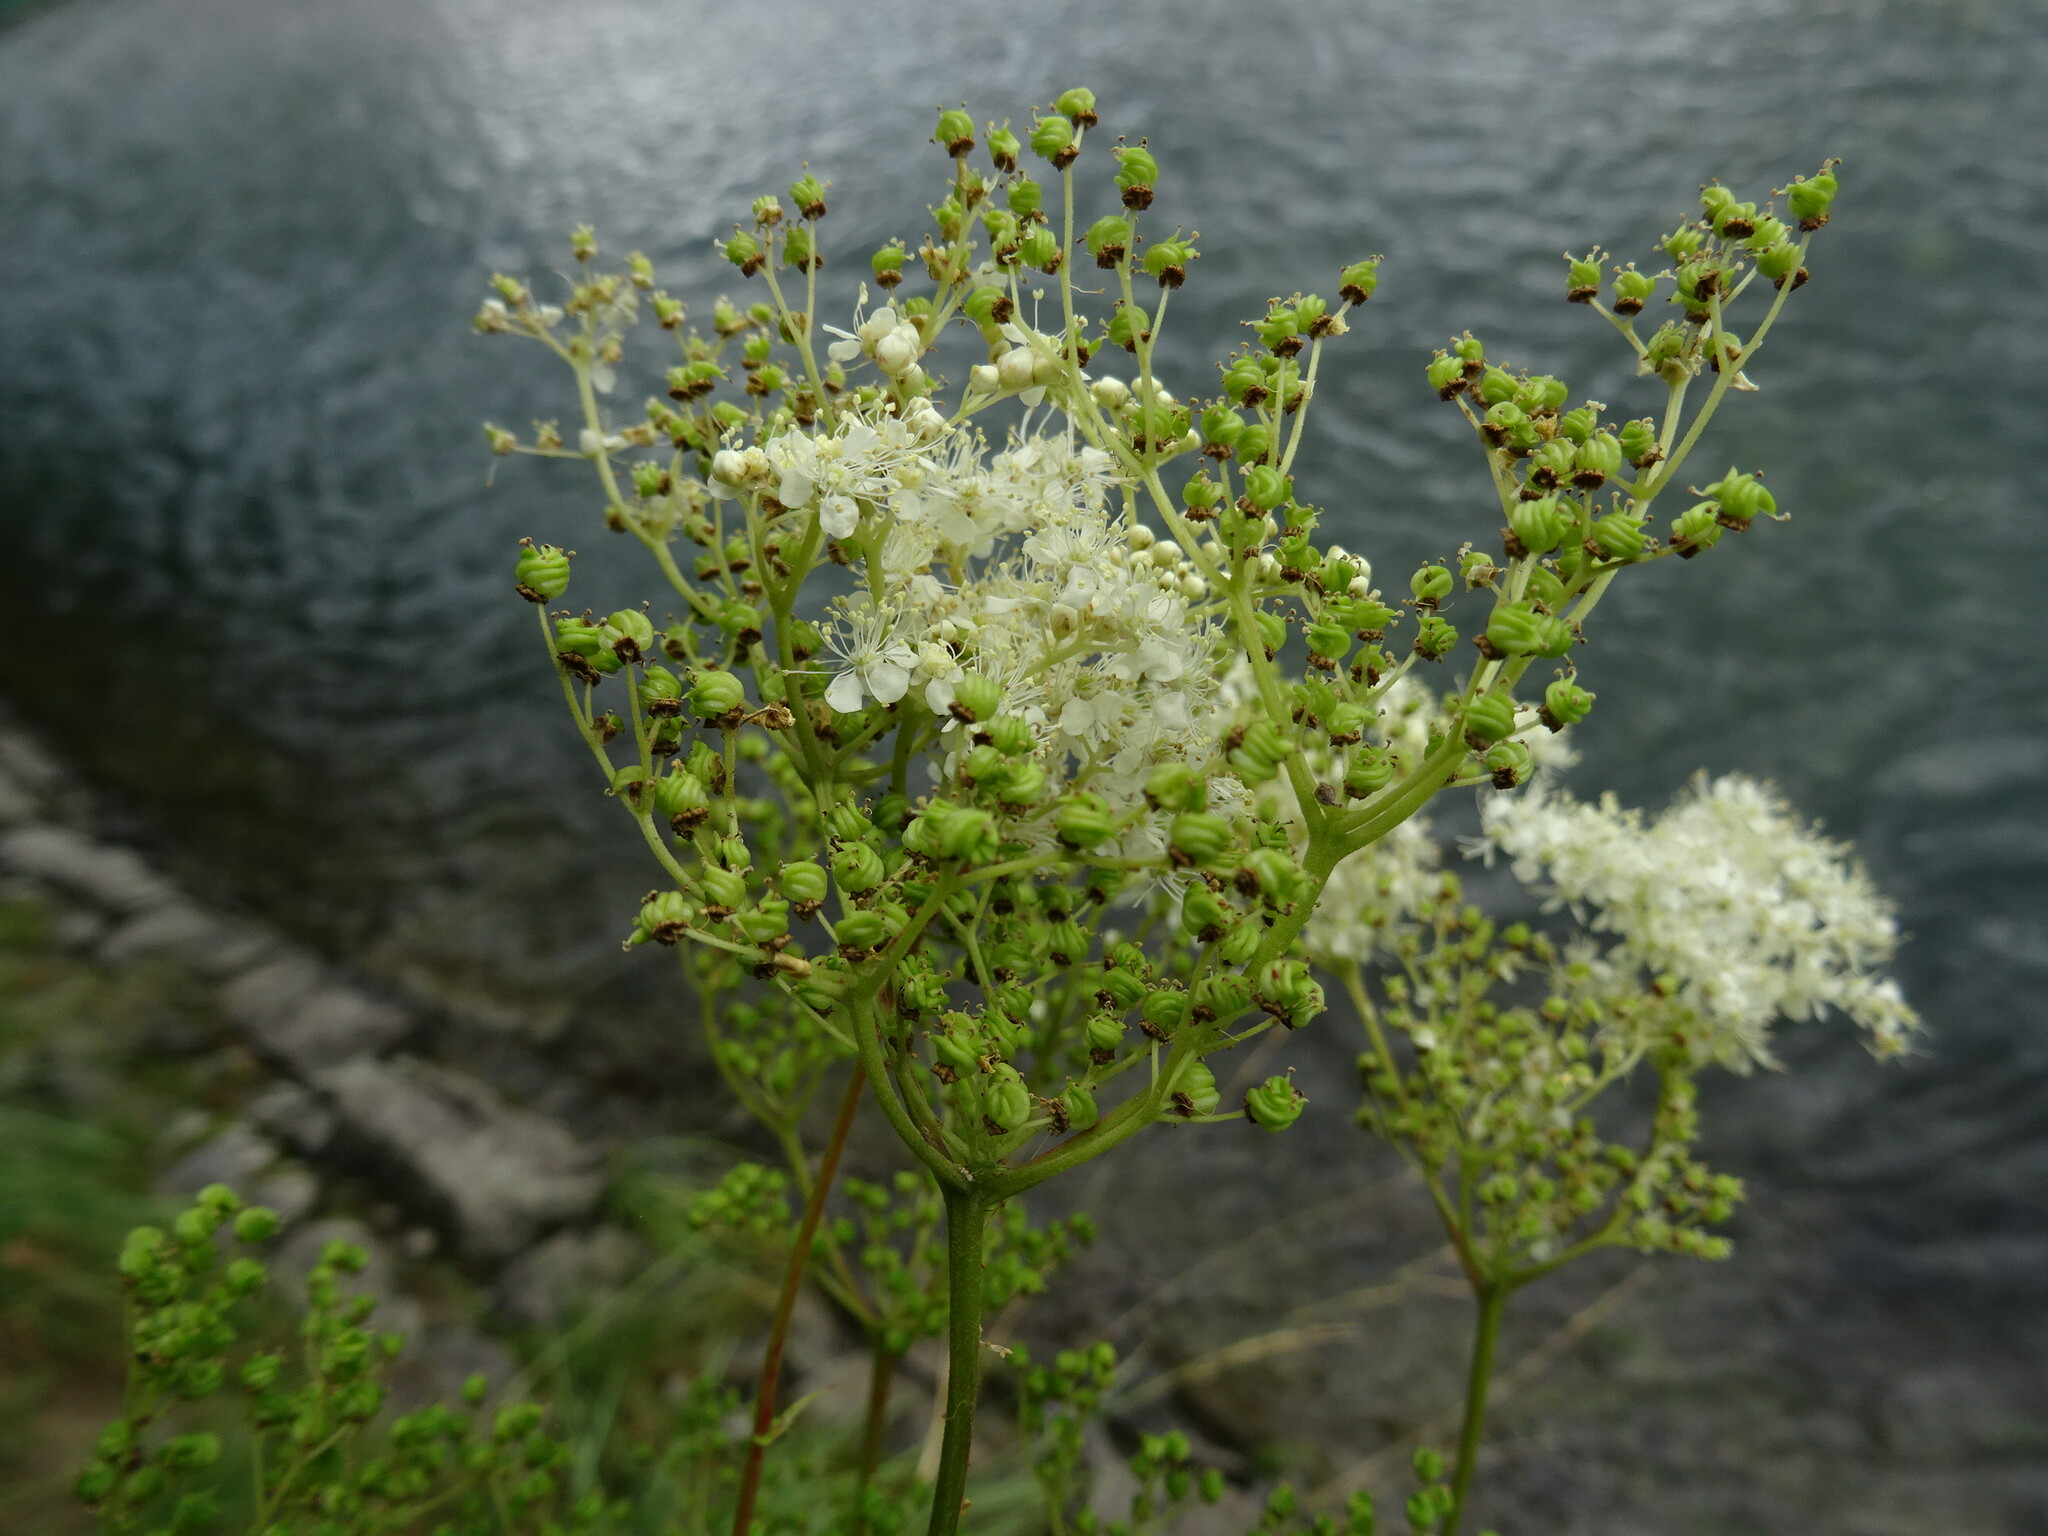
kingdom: Plantae
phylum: Tracheophyta
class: Magnoliopsida
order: Rosales
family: Rosaceae
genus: Filipendula
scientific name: Filipendula ulmaria
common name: Meadowsweet
